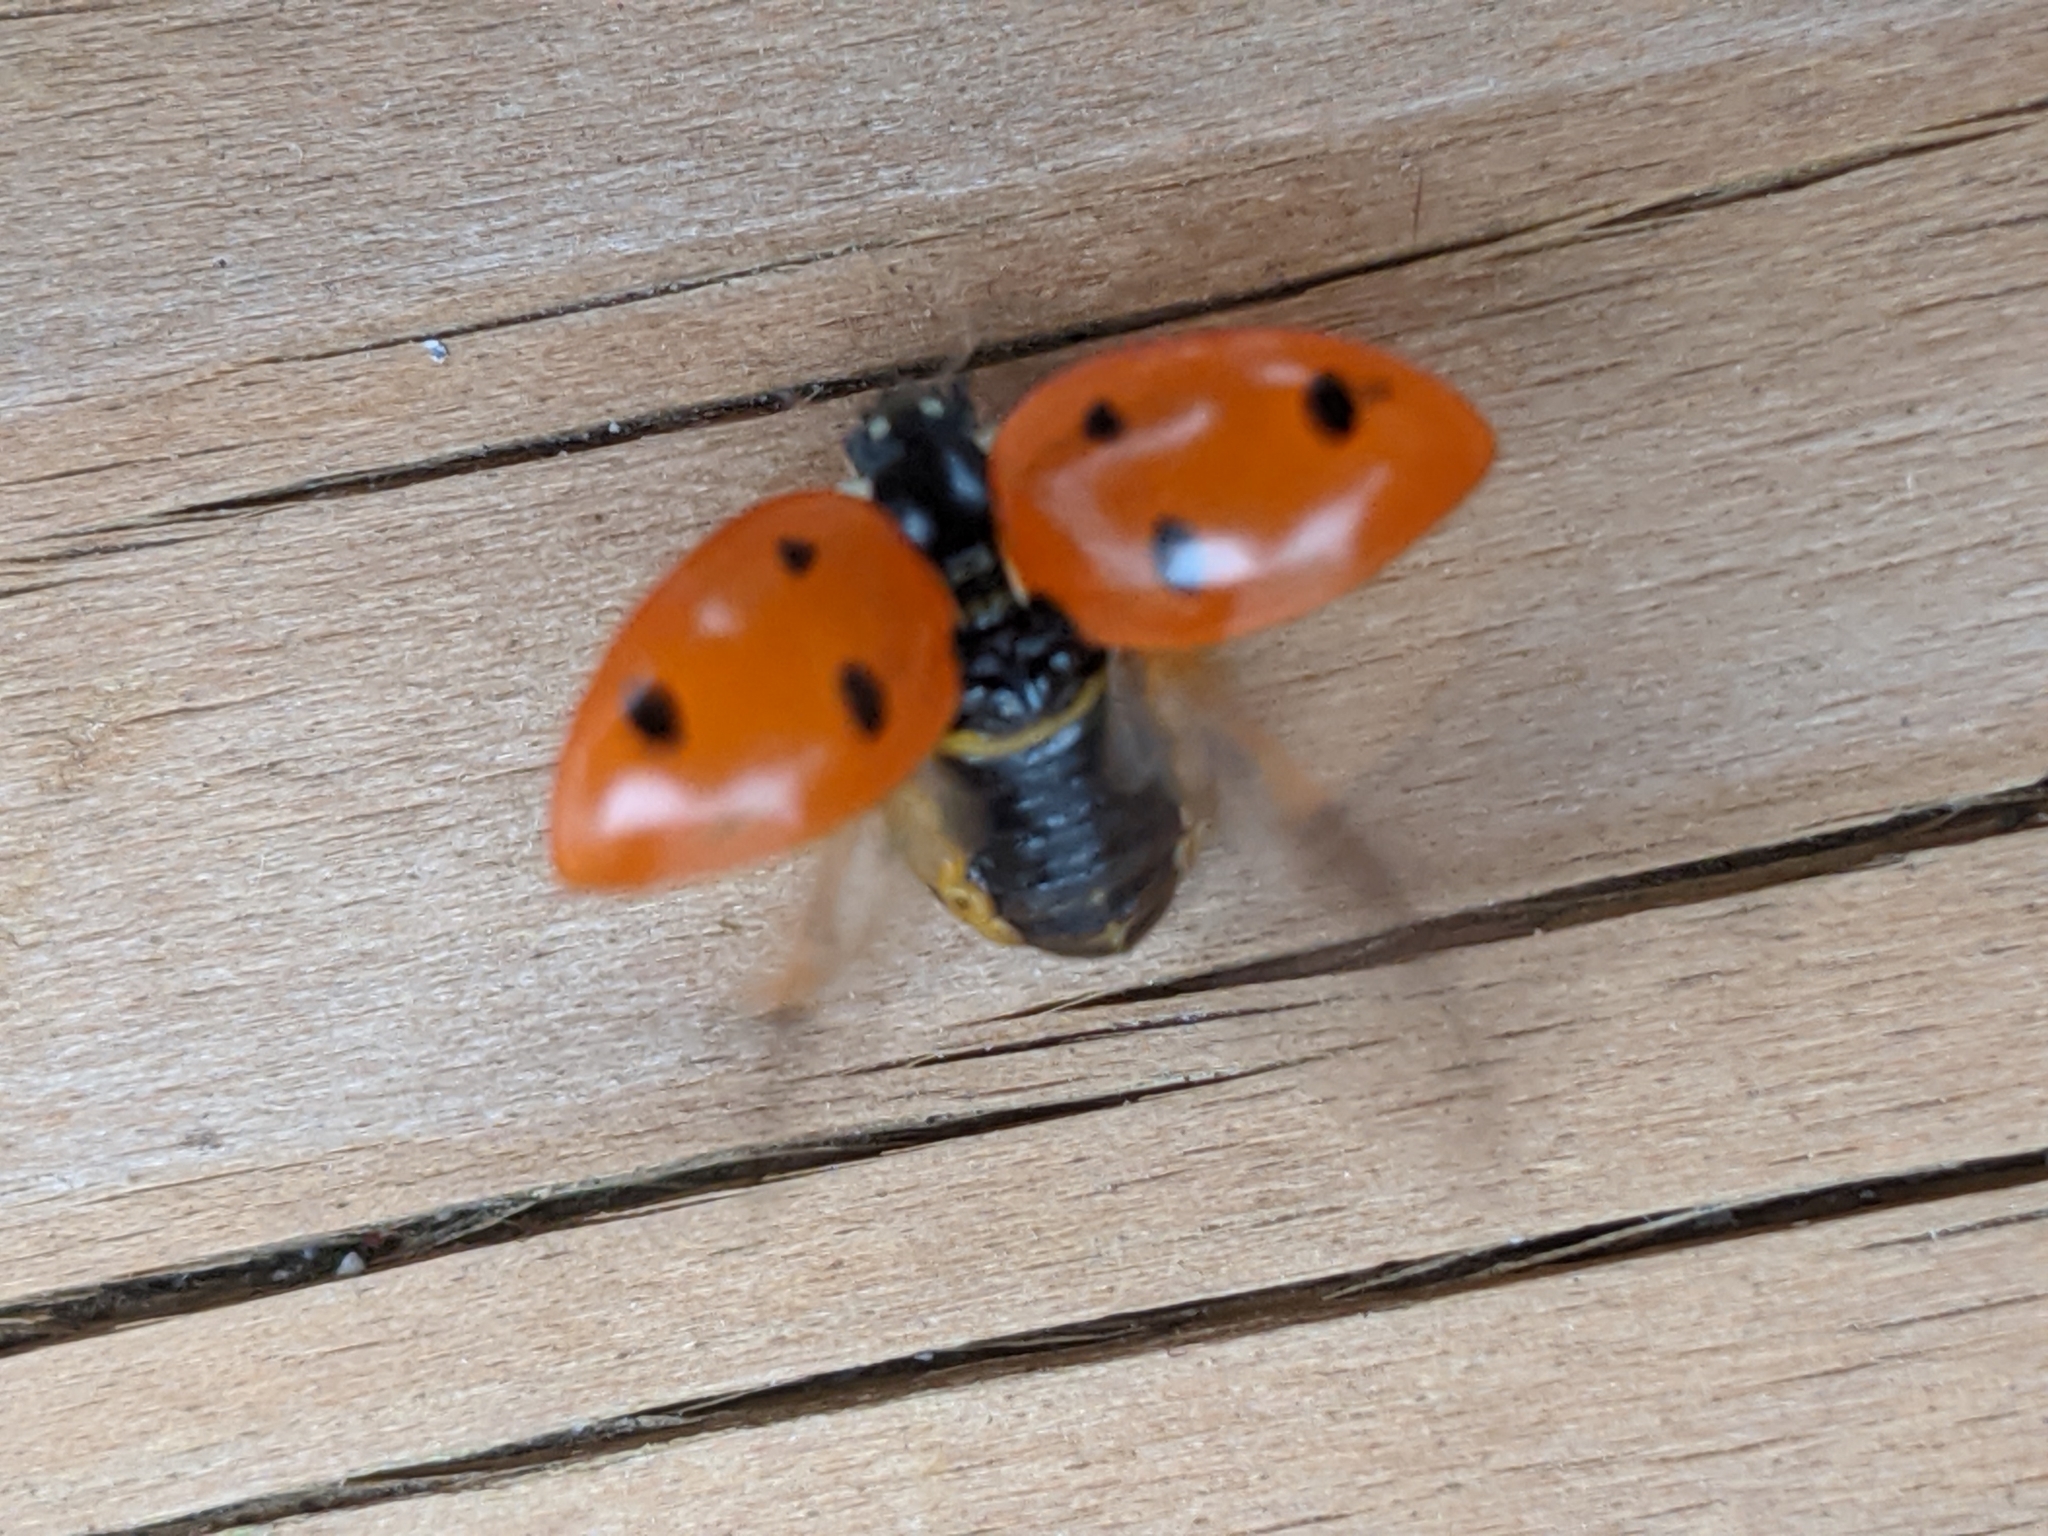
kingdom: Animalia
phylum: Arthropoda
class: Insecta
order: Coleoptera
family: Coccinellidae
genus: Coccinella
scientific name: Coccinella septempunctata
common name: Sevenspotted lady beetle
